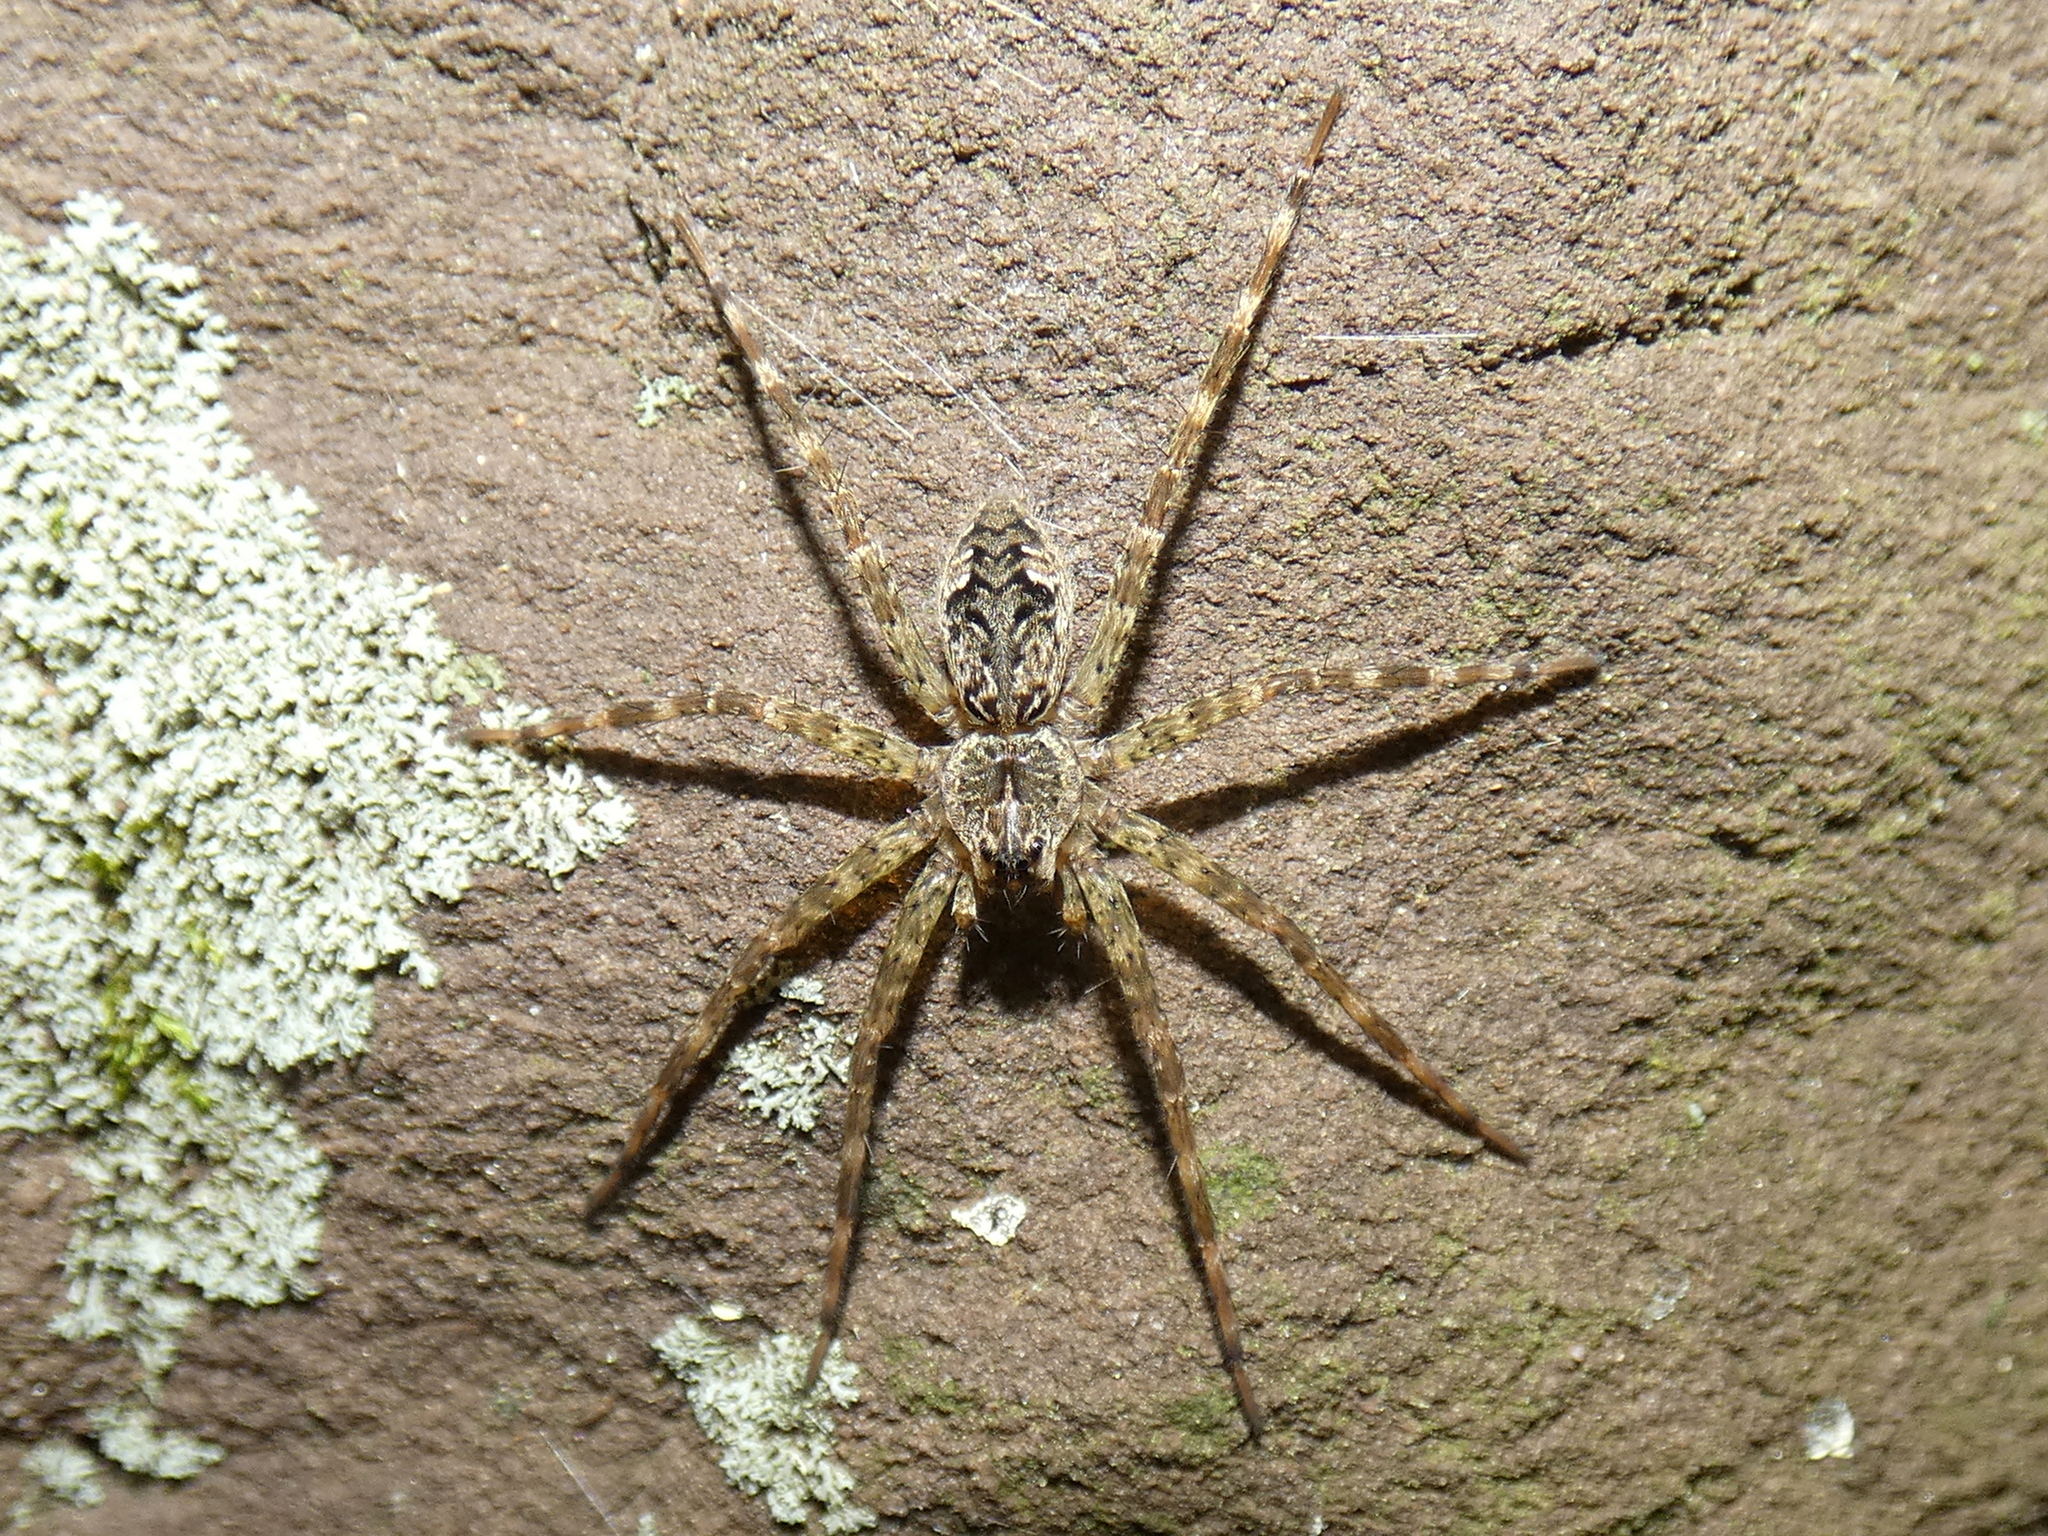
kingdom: Animalia
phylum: Arthropoda
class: Arachnida
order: Araneae
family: Pisauridae
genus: Dolomedes
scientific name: Dolomedes tenebrosus
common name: Dark fishing spider
